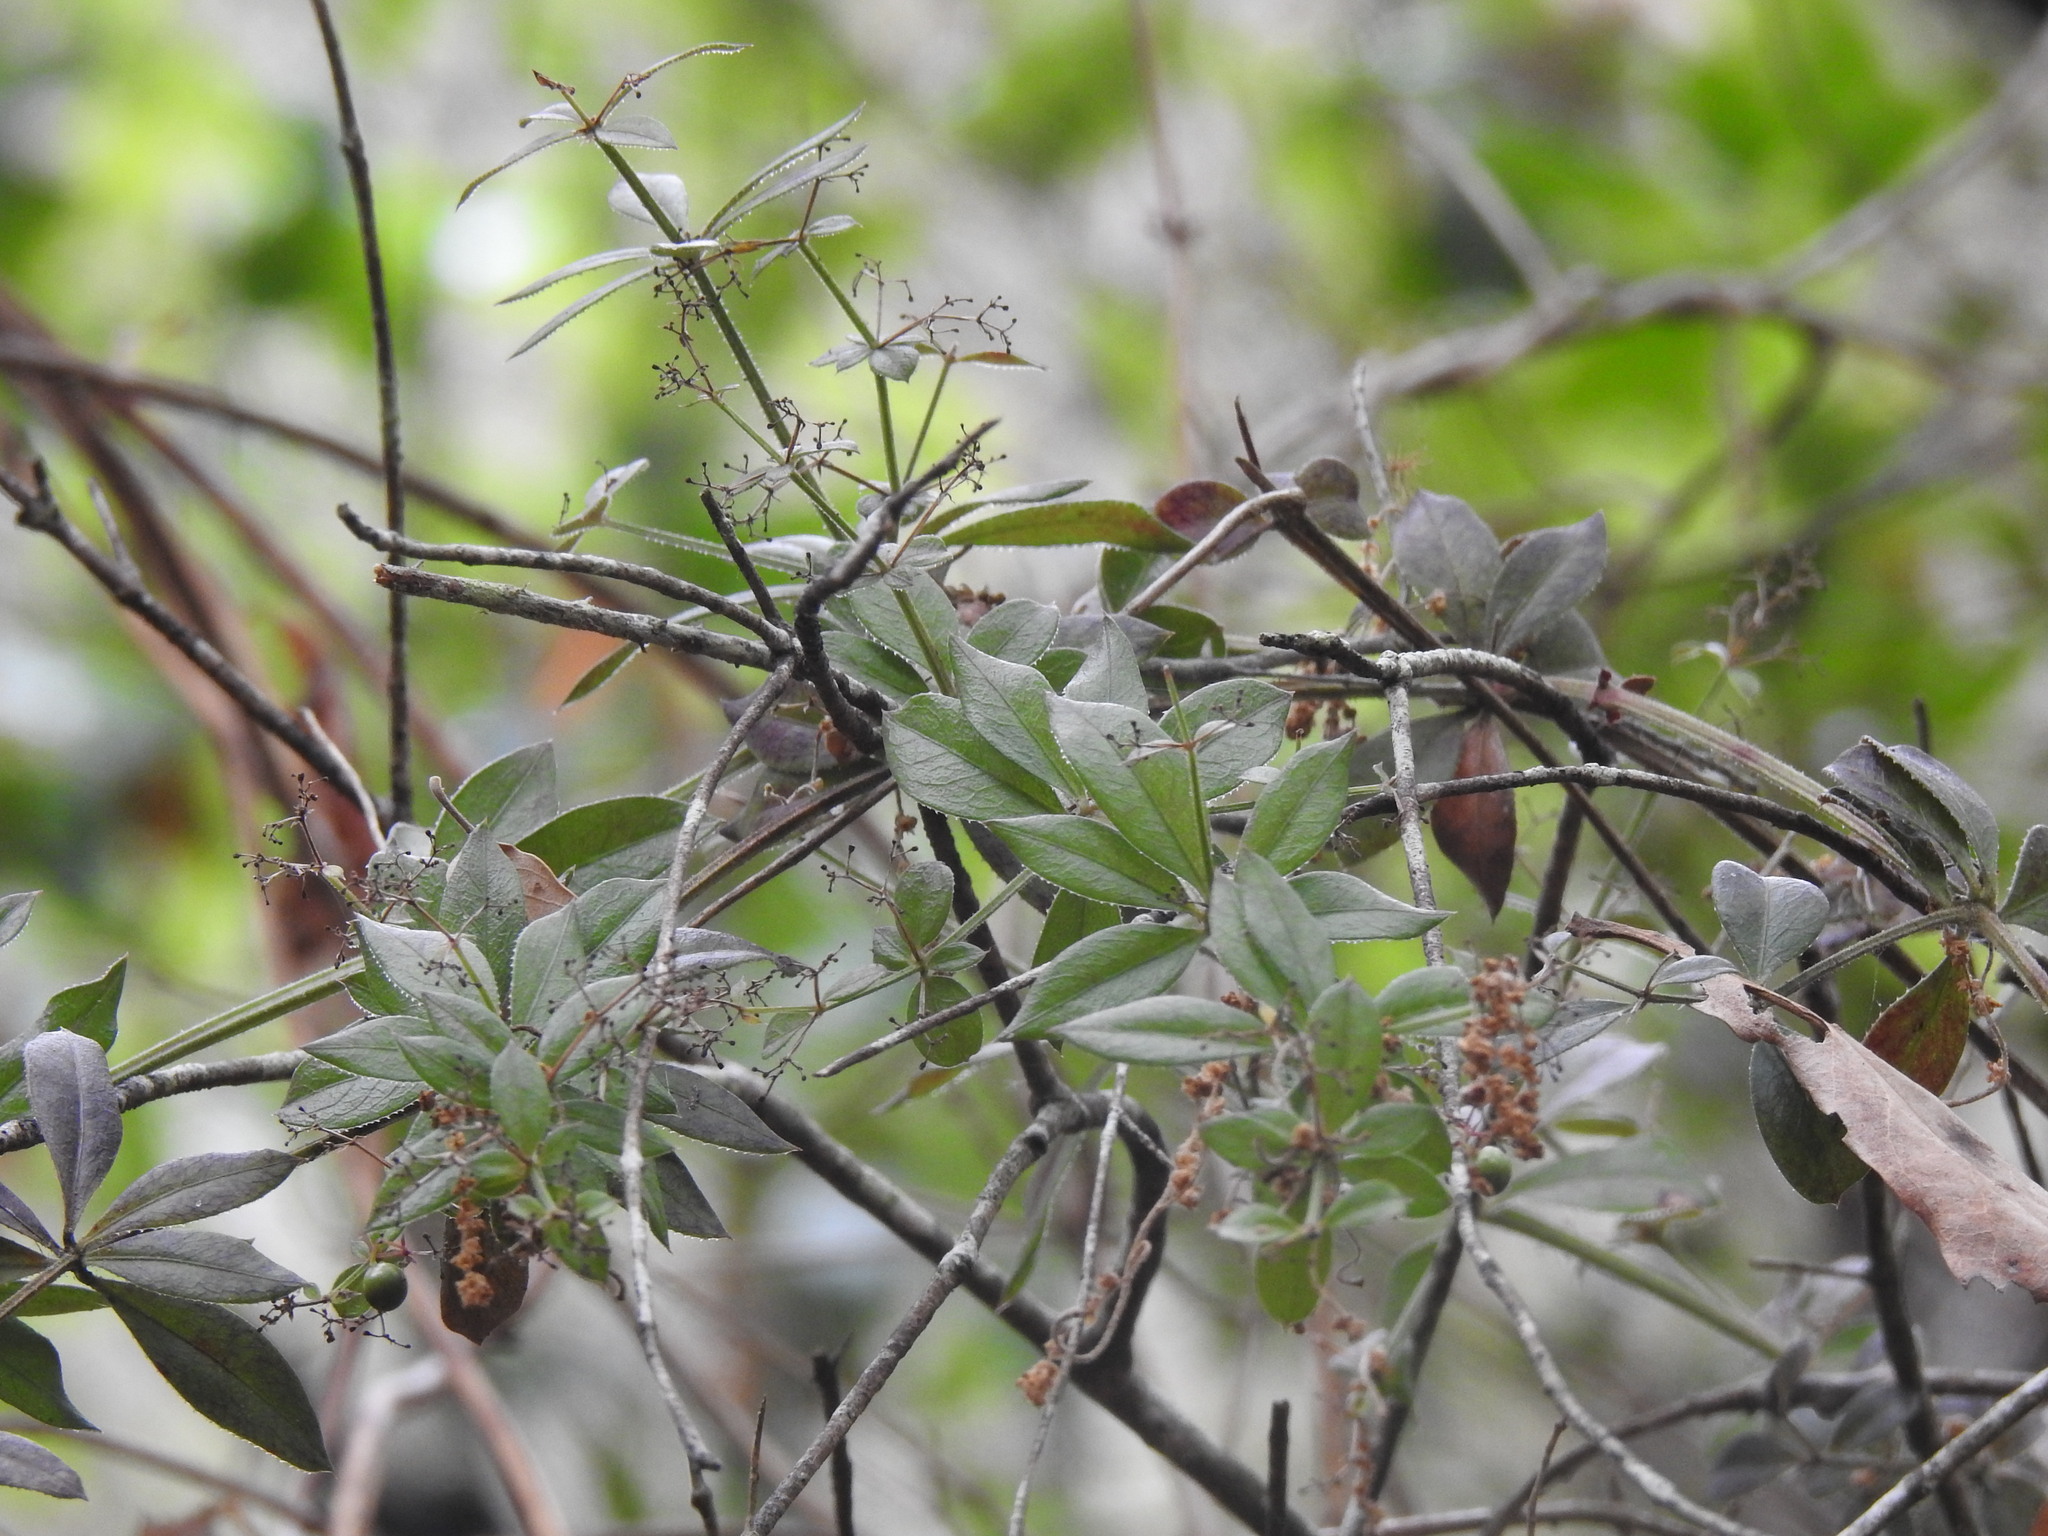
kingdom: Plantae
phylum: Tracheophyta
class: Magnoliopsida
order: Gentianales
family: Rubiaceae
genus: Rubia
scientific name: Rubia peregrina
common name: Wild madder
